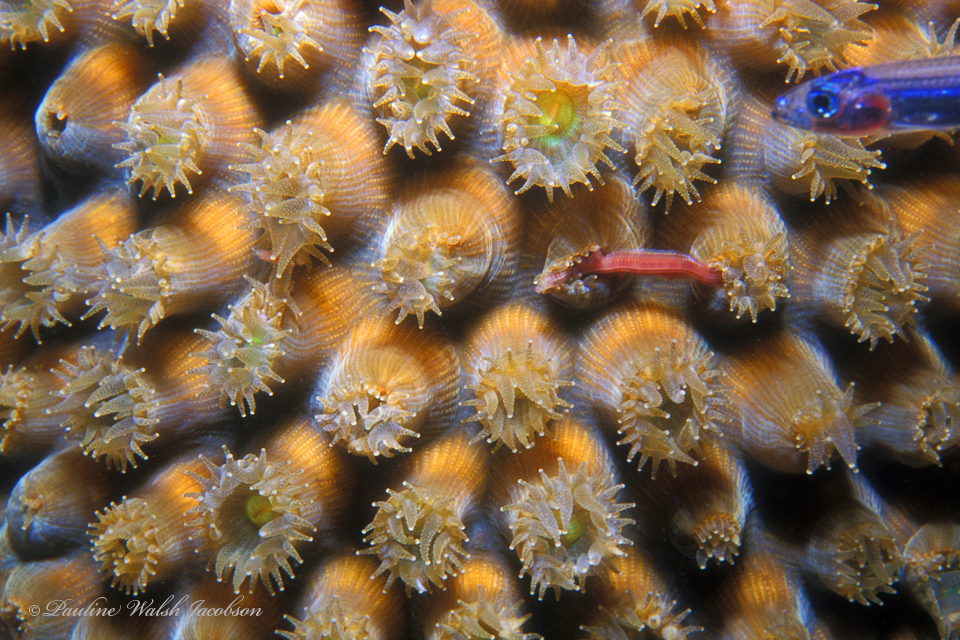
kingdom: Animalia
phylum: Cnidaria
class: Anthozoa
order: Scleractinia
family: Montastraeidae
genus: Montastraea
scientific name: Montastraea cavernosa
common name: Great star coral
